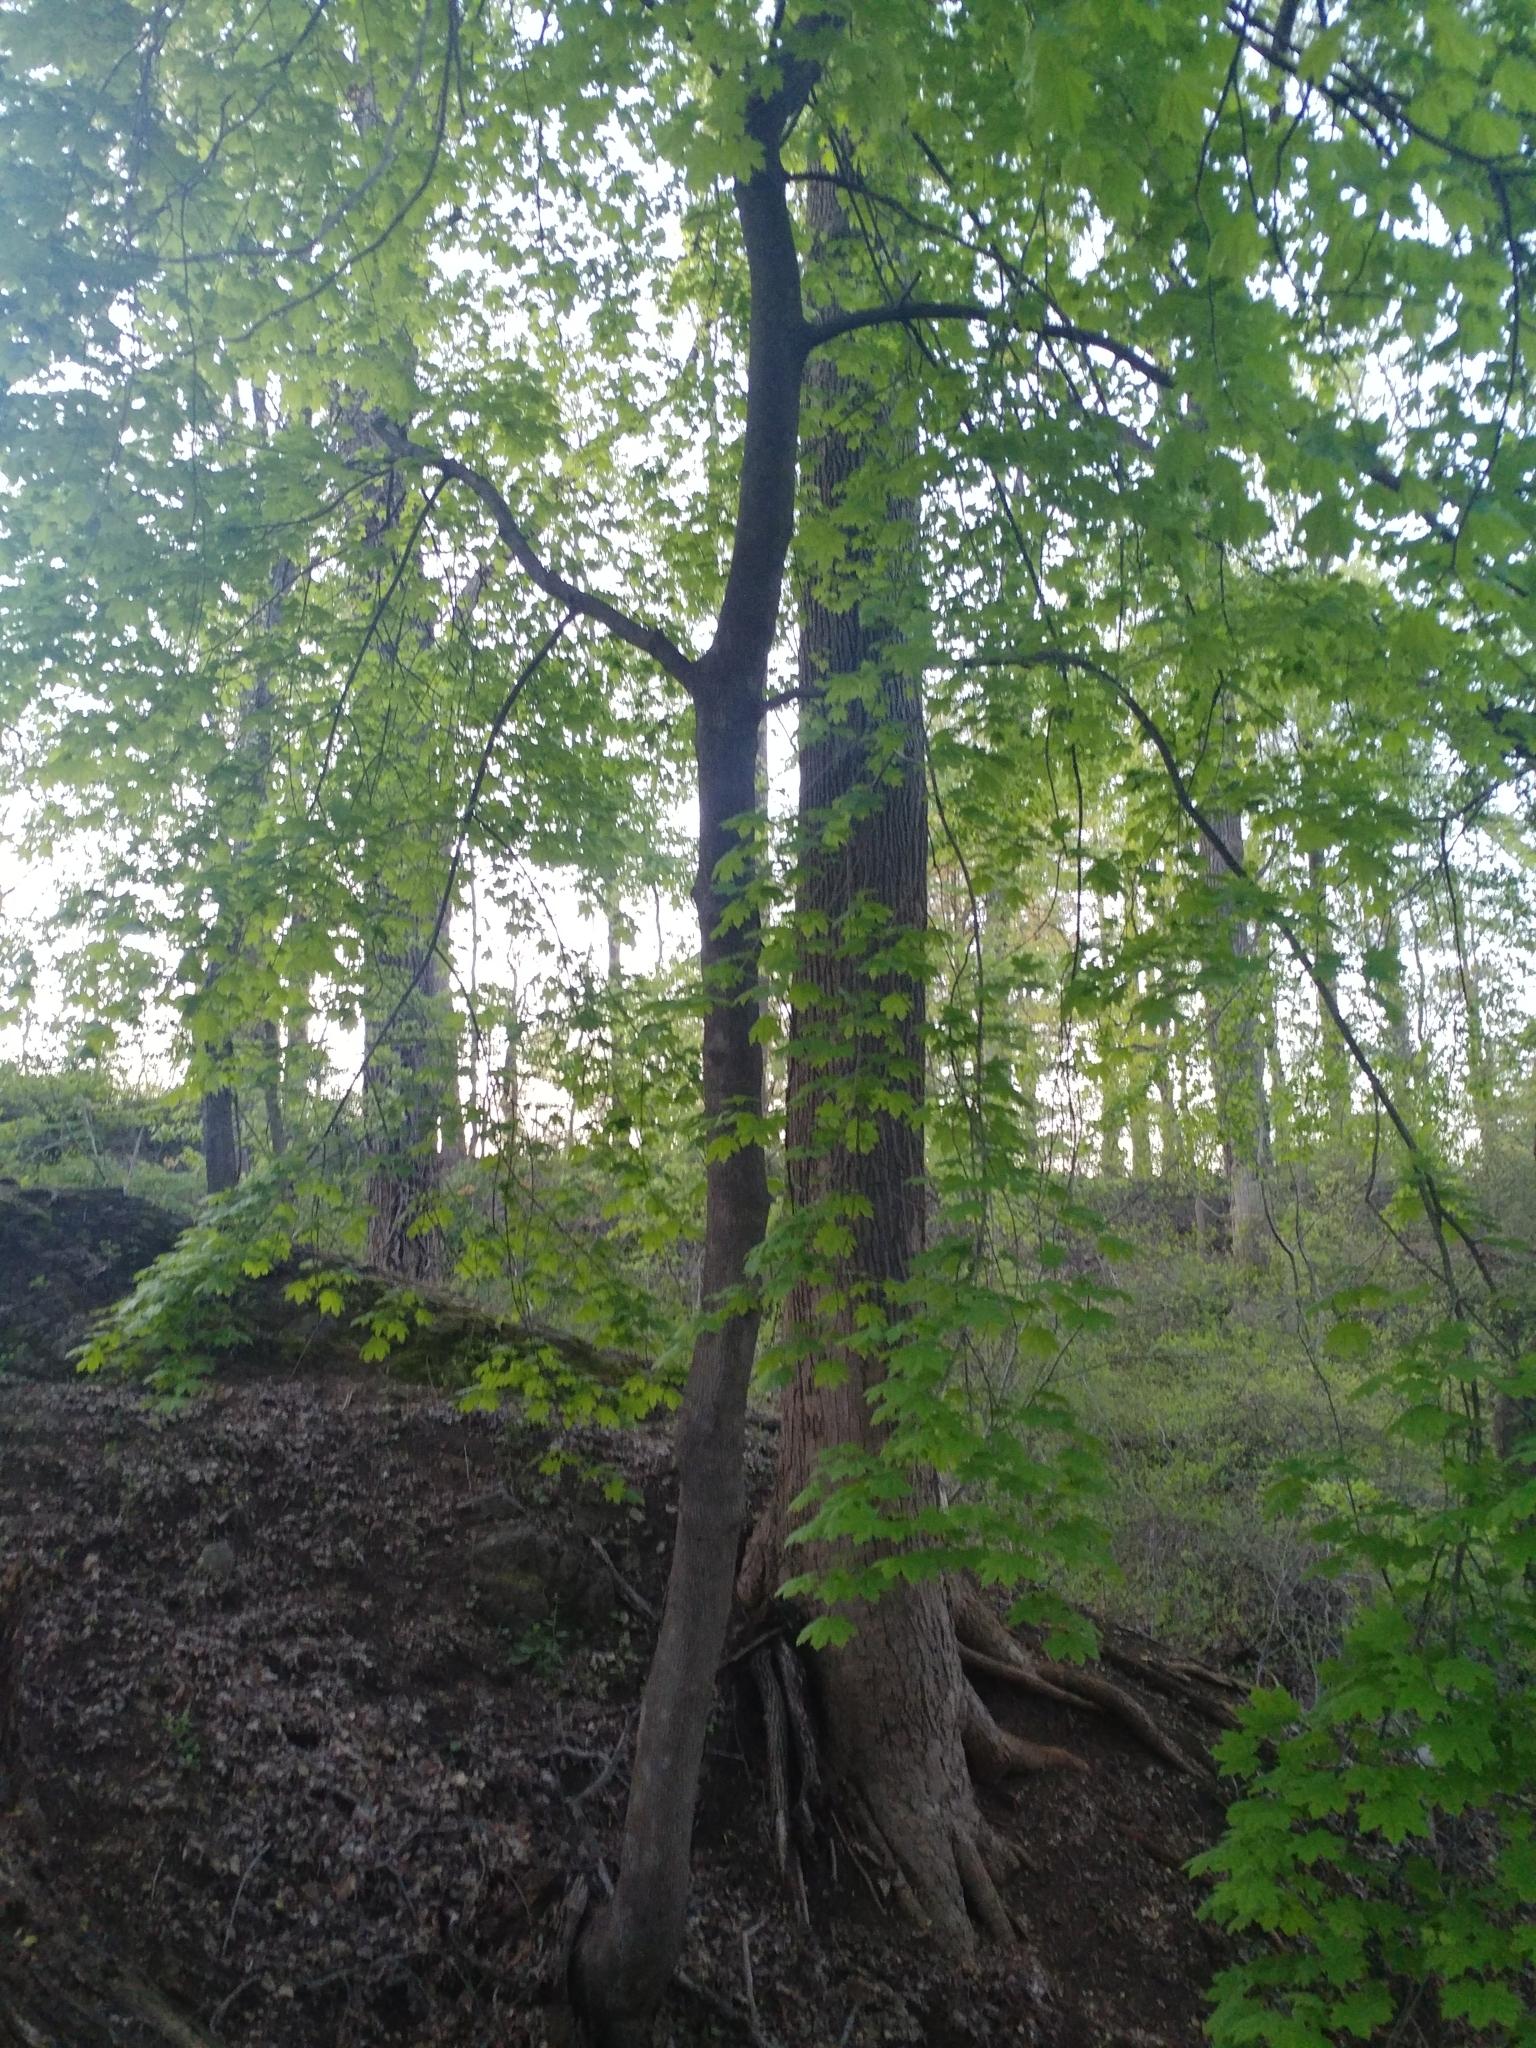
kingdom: Plantae
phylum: Tracheophyta
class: Magnoliopsida
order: Sapindales
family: Sapindaceae
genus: Acer
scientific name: Acer platanoides
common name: Norway maple
